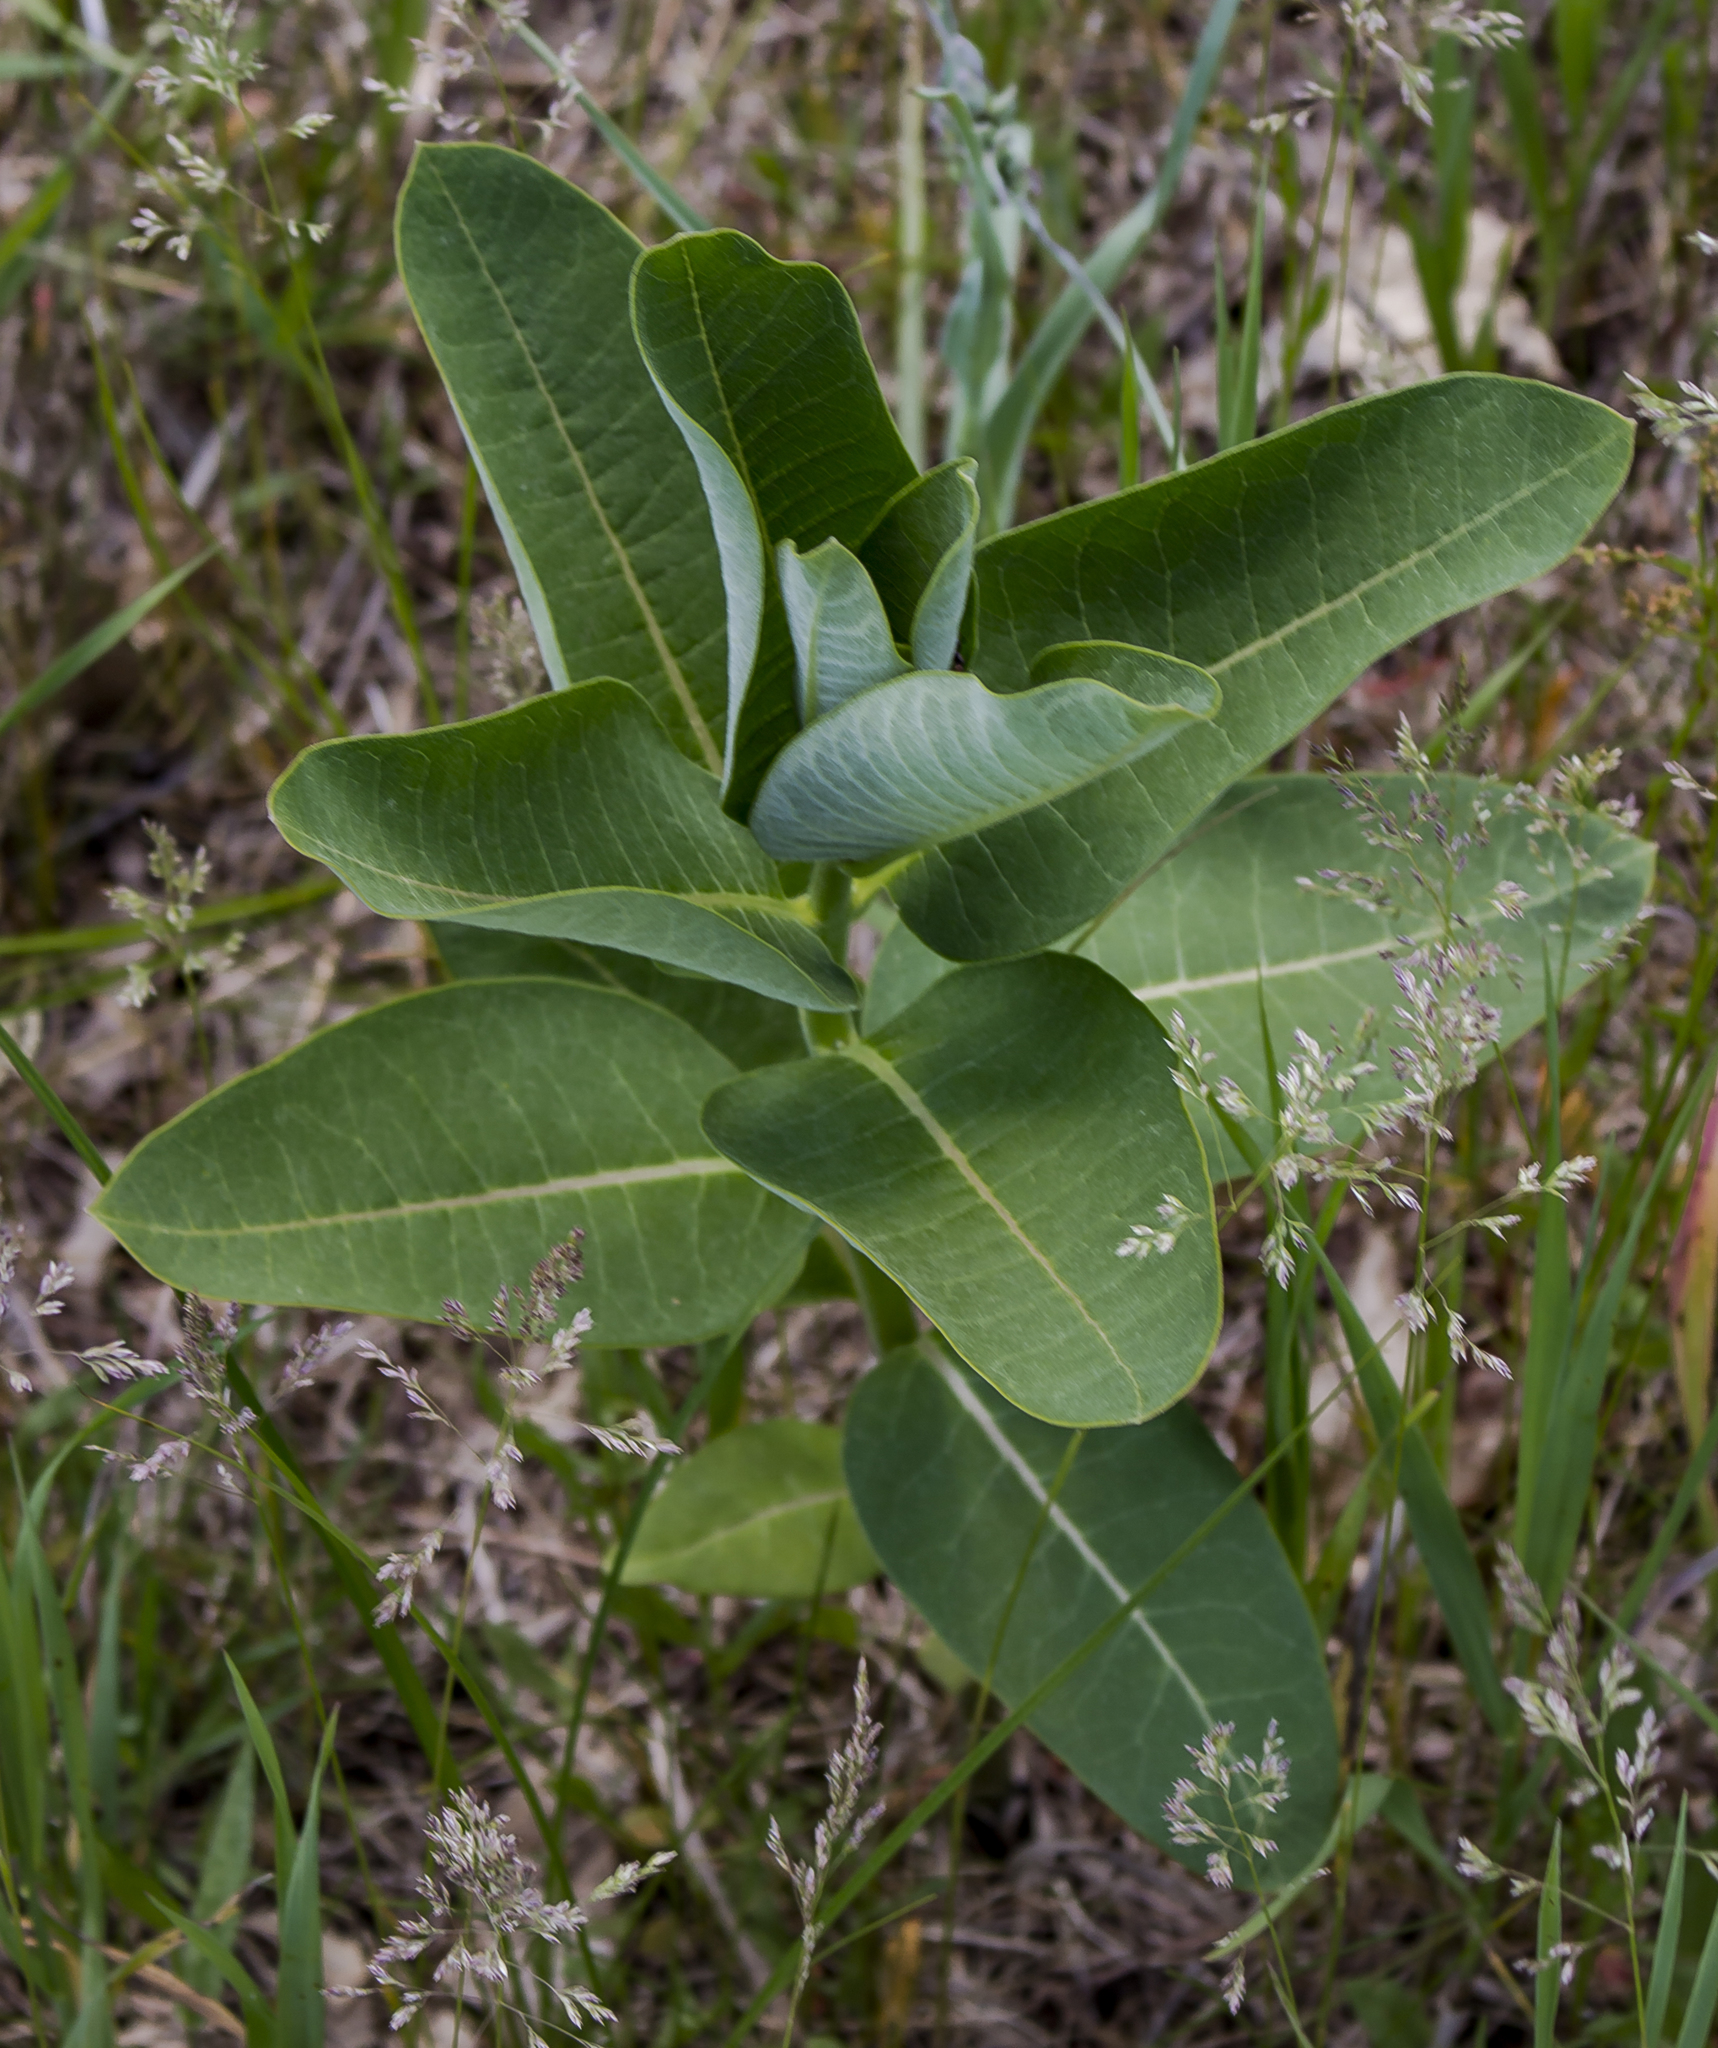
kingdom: Plantae
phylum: Tracheophyta
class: Magnoliopsida
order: Gentianales
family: Apocynaceae
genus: Asclepias
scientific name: Asclepias syriaca
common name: Common milkweed
